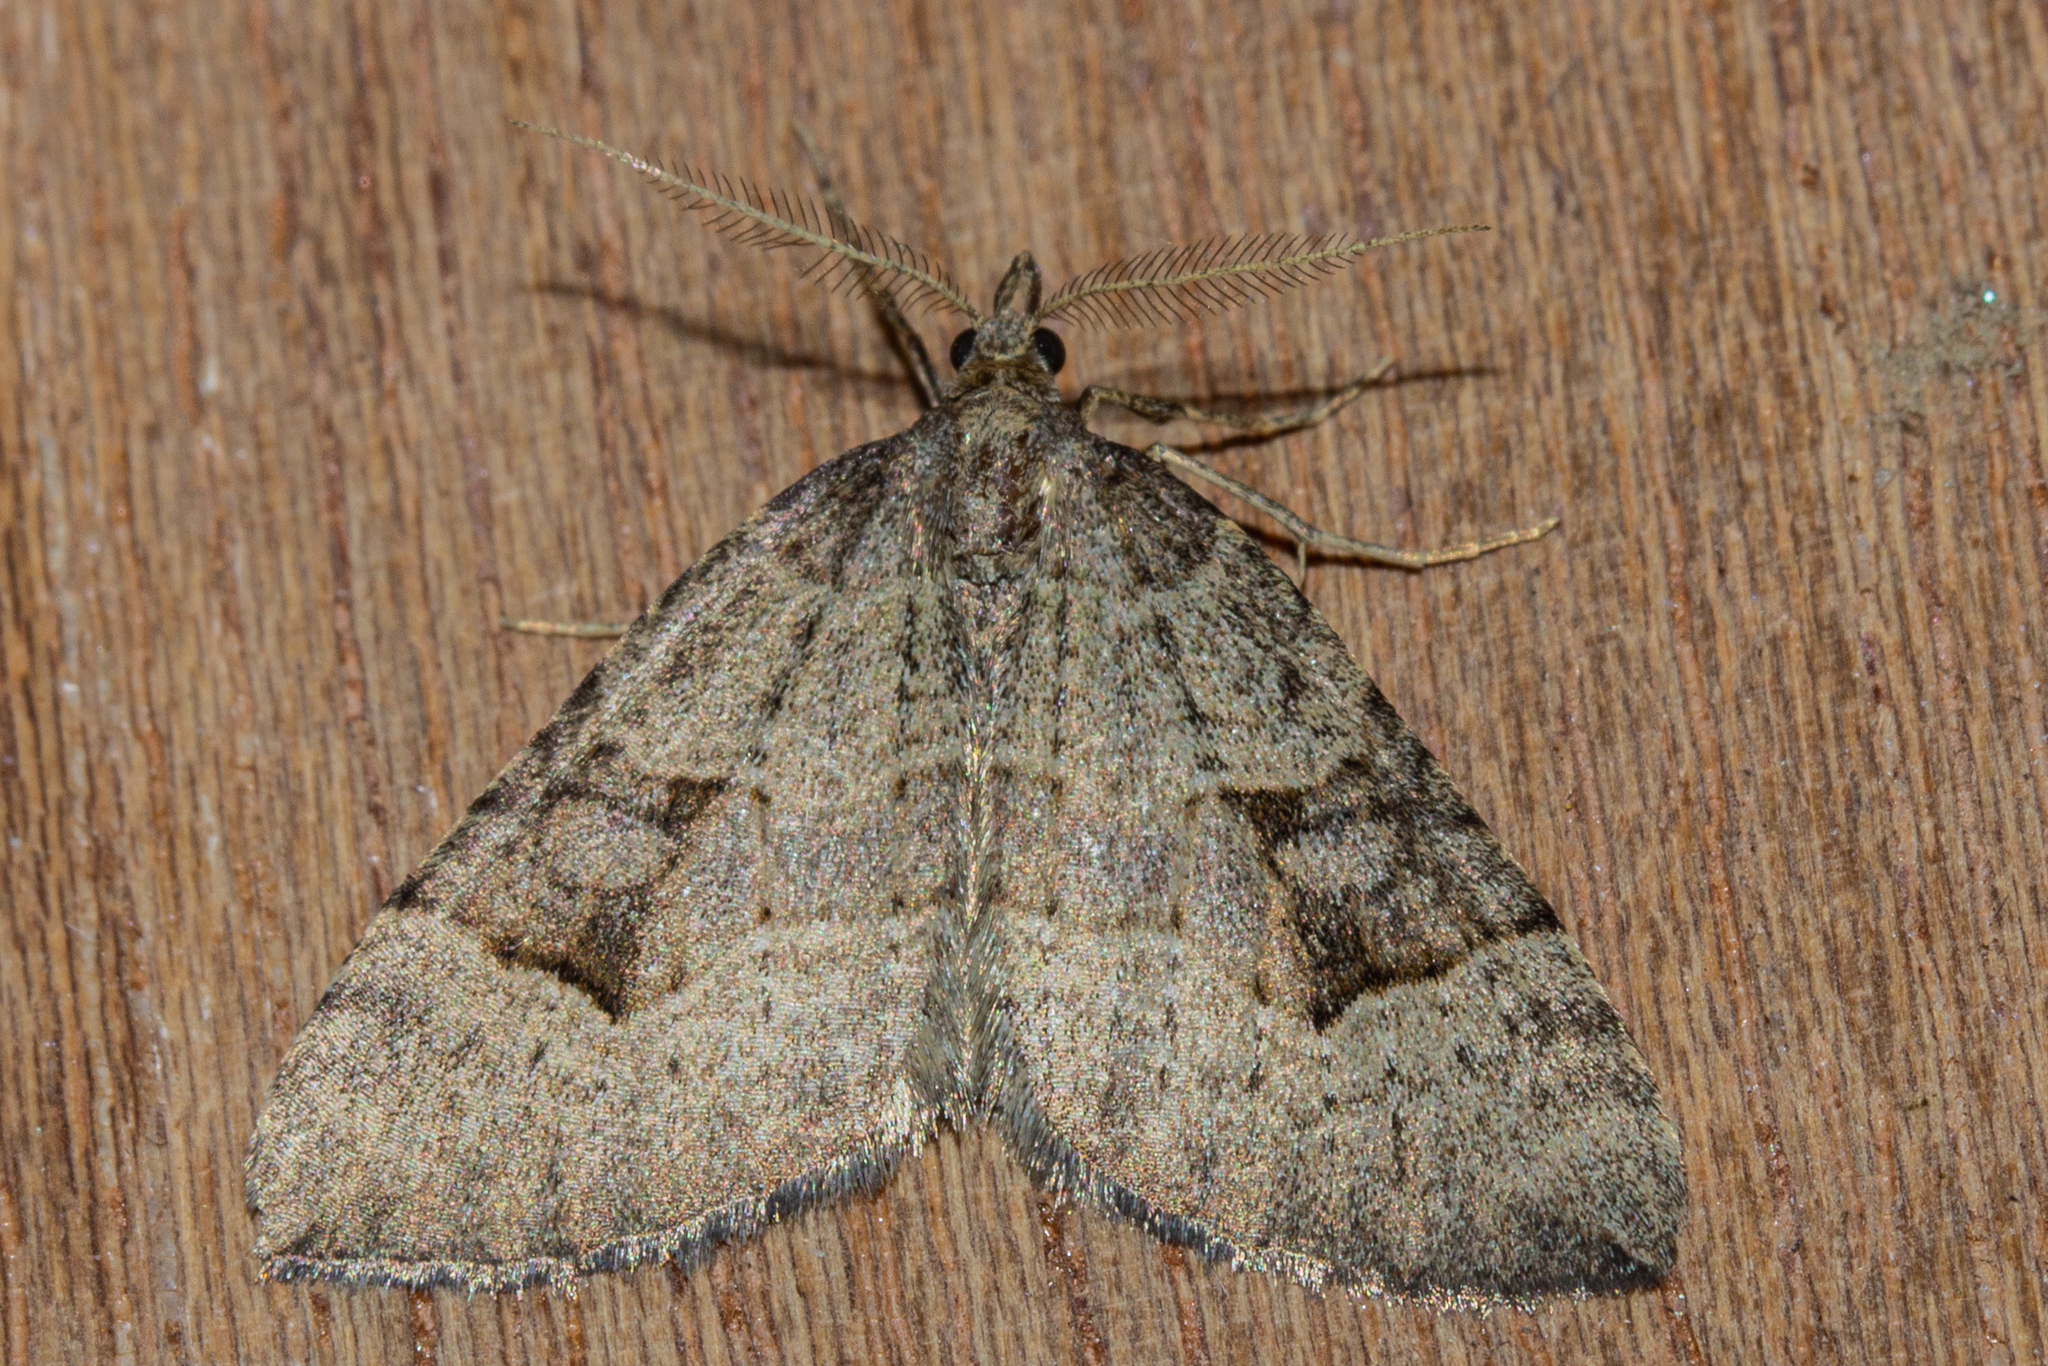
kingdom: Animalia
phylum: Arthropoda
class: Insecta
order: Lepidoptera
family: Geometridae
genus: Epyaxa
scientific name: Epyaxa rosearia
